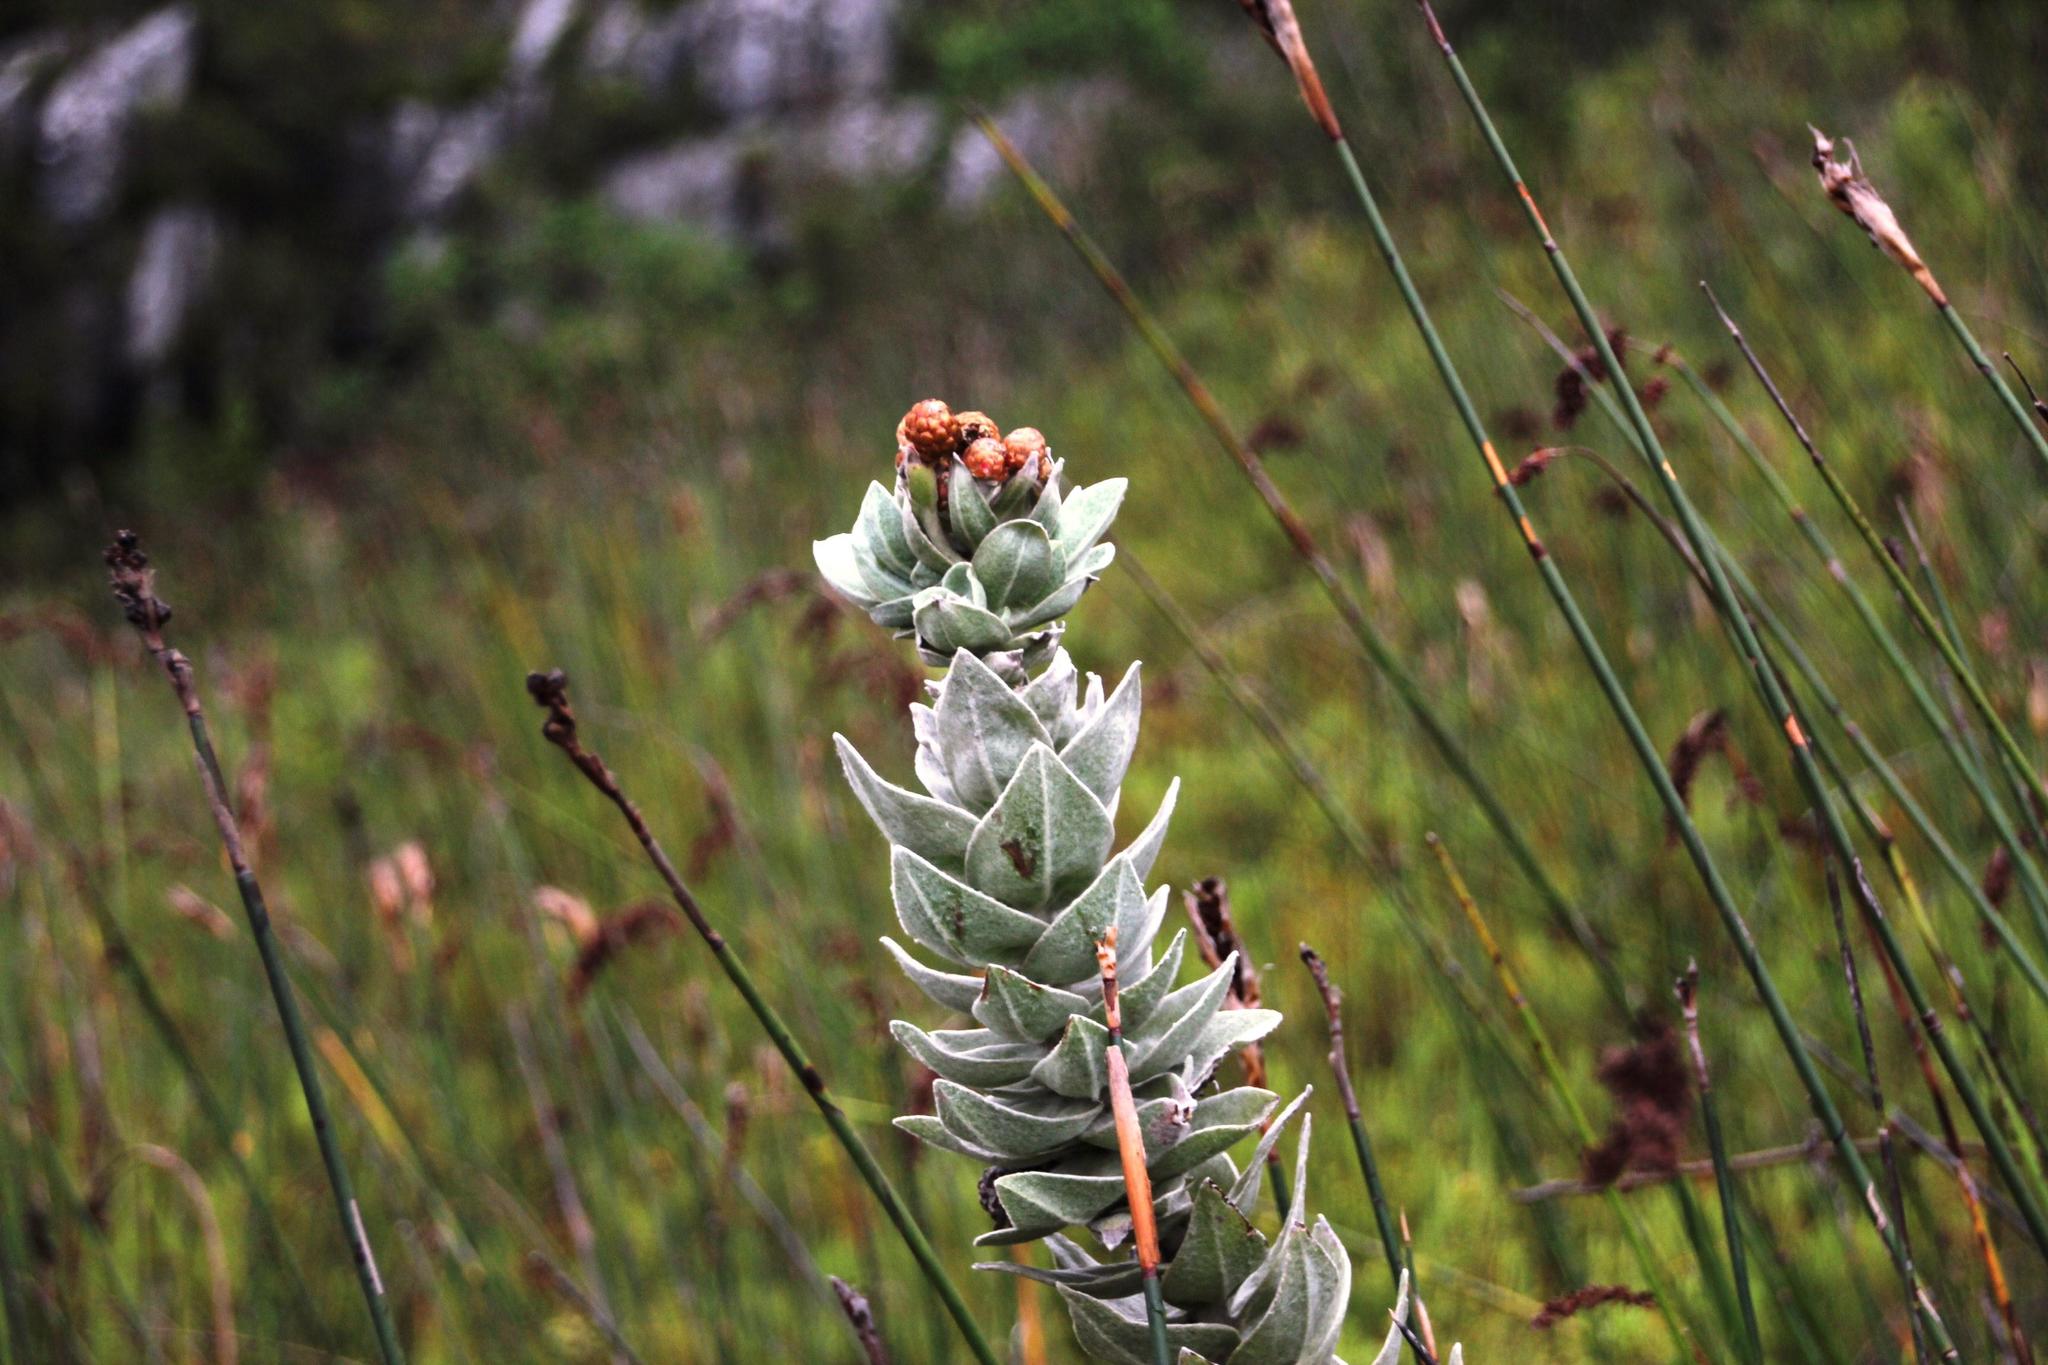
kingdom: Plantae
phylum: Tracheophyta
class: Magnoliopsida
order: Asterales
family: Asteraceae
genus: Syncarpha
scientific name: Syncarpha eximia
